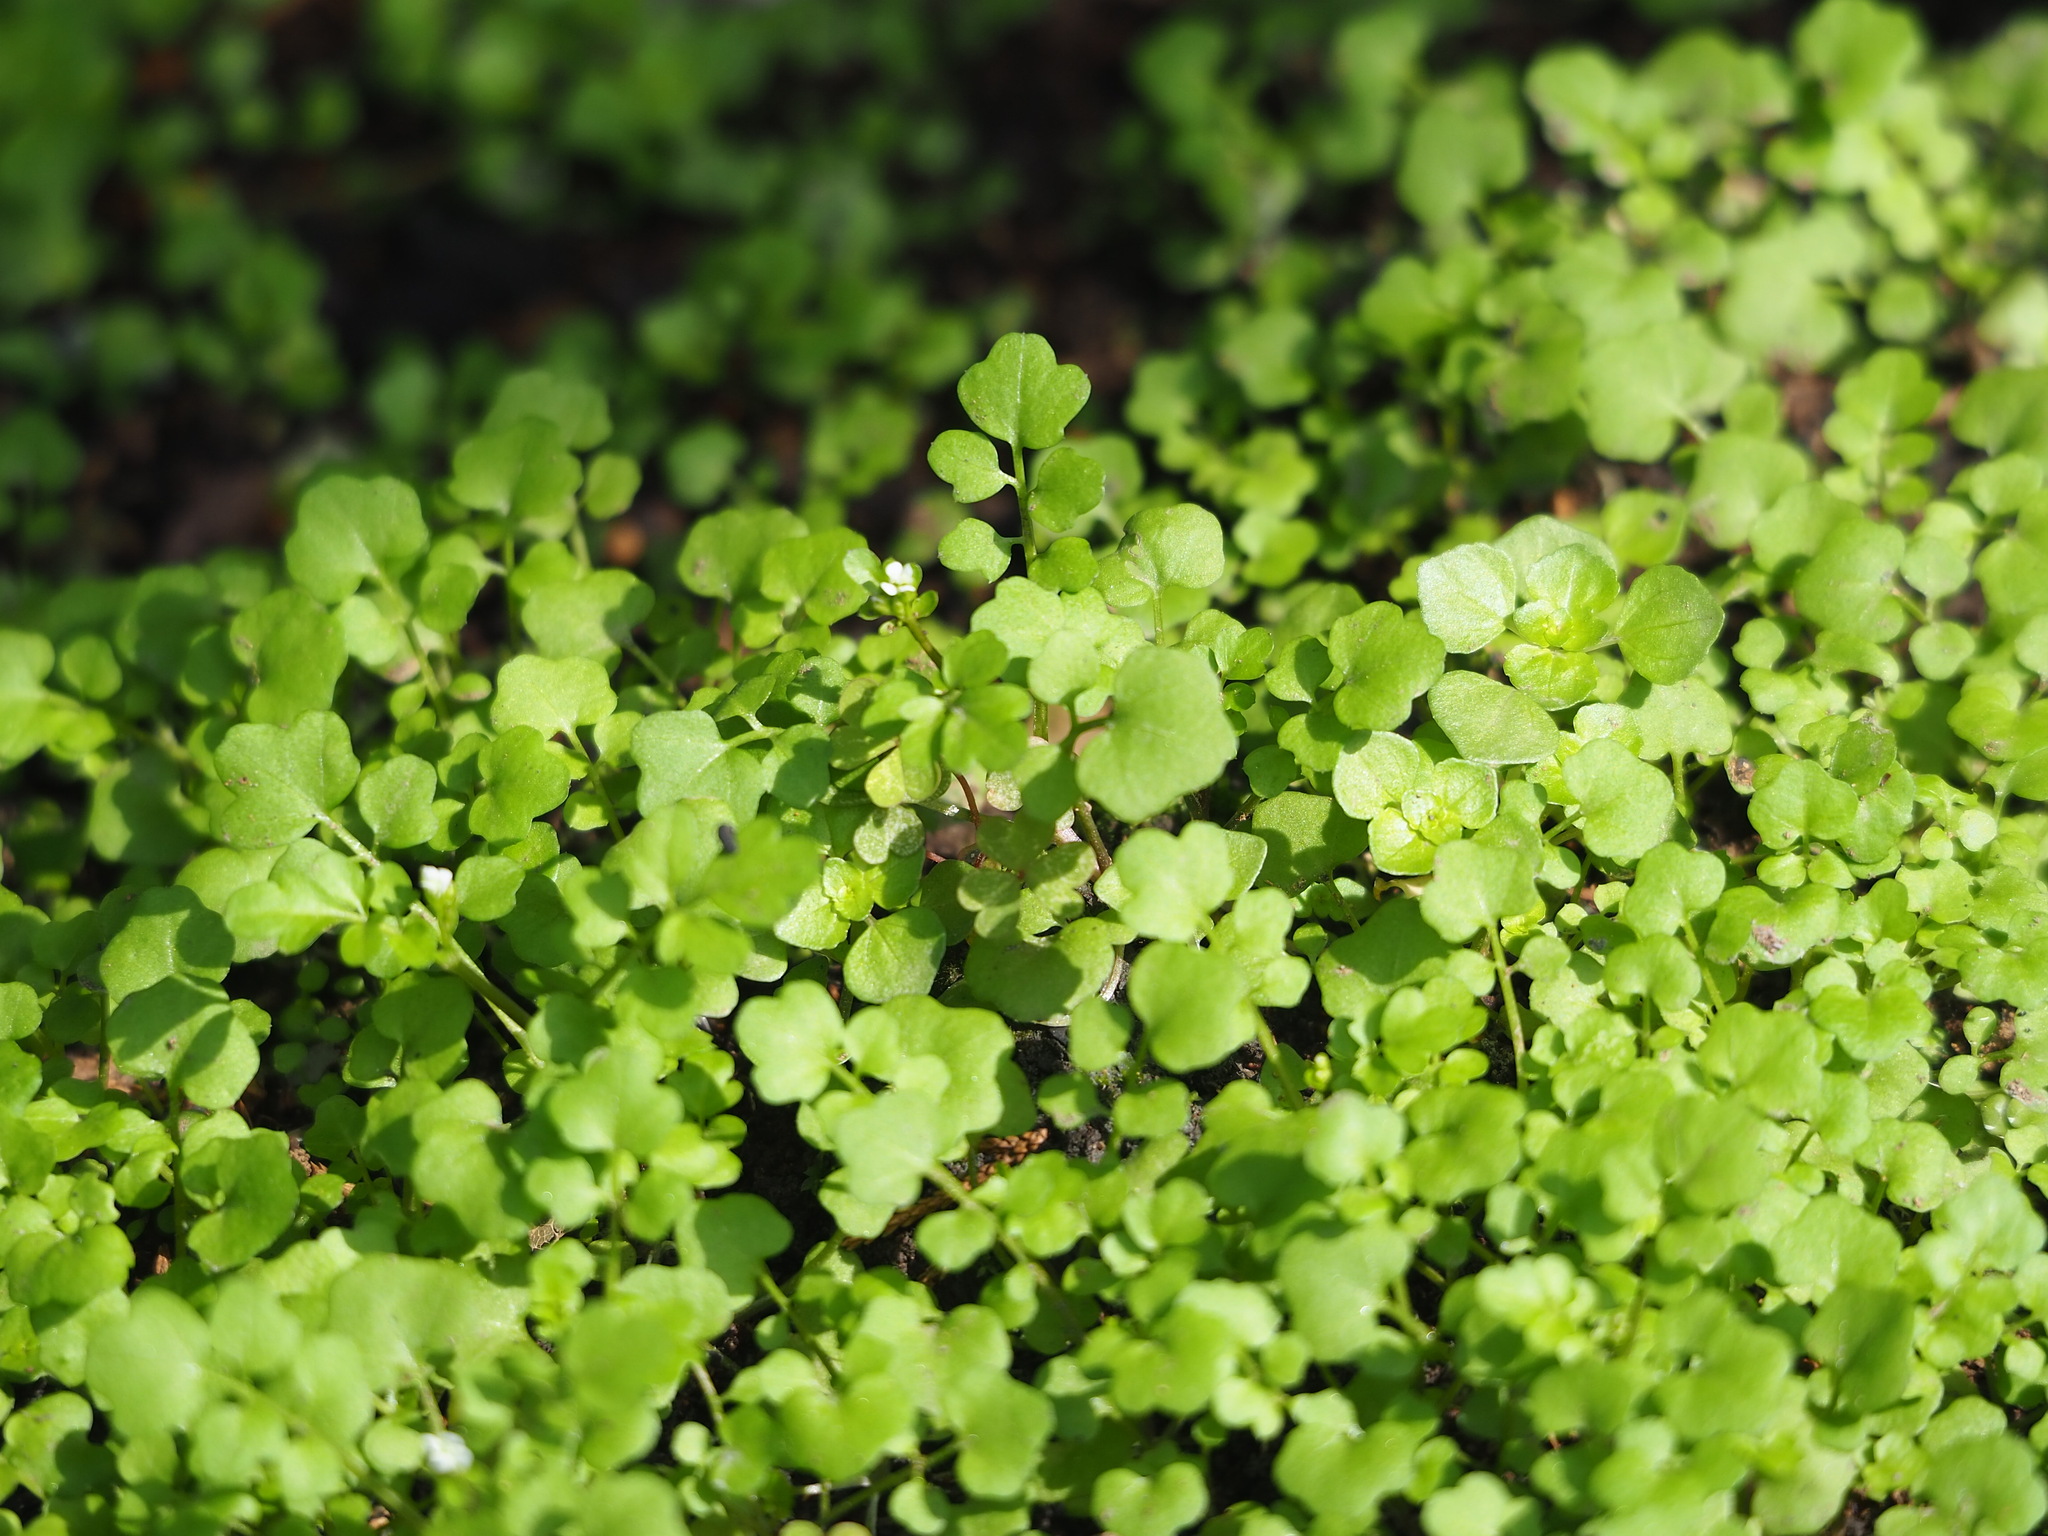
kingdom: Plantae
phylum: Tracheophyta
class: Magnoliopsida
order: Brassicales
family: Brassicaceae
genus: Cardamine
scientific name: Cardamine occulta
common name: Asian wavy bittercress
